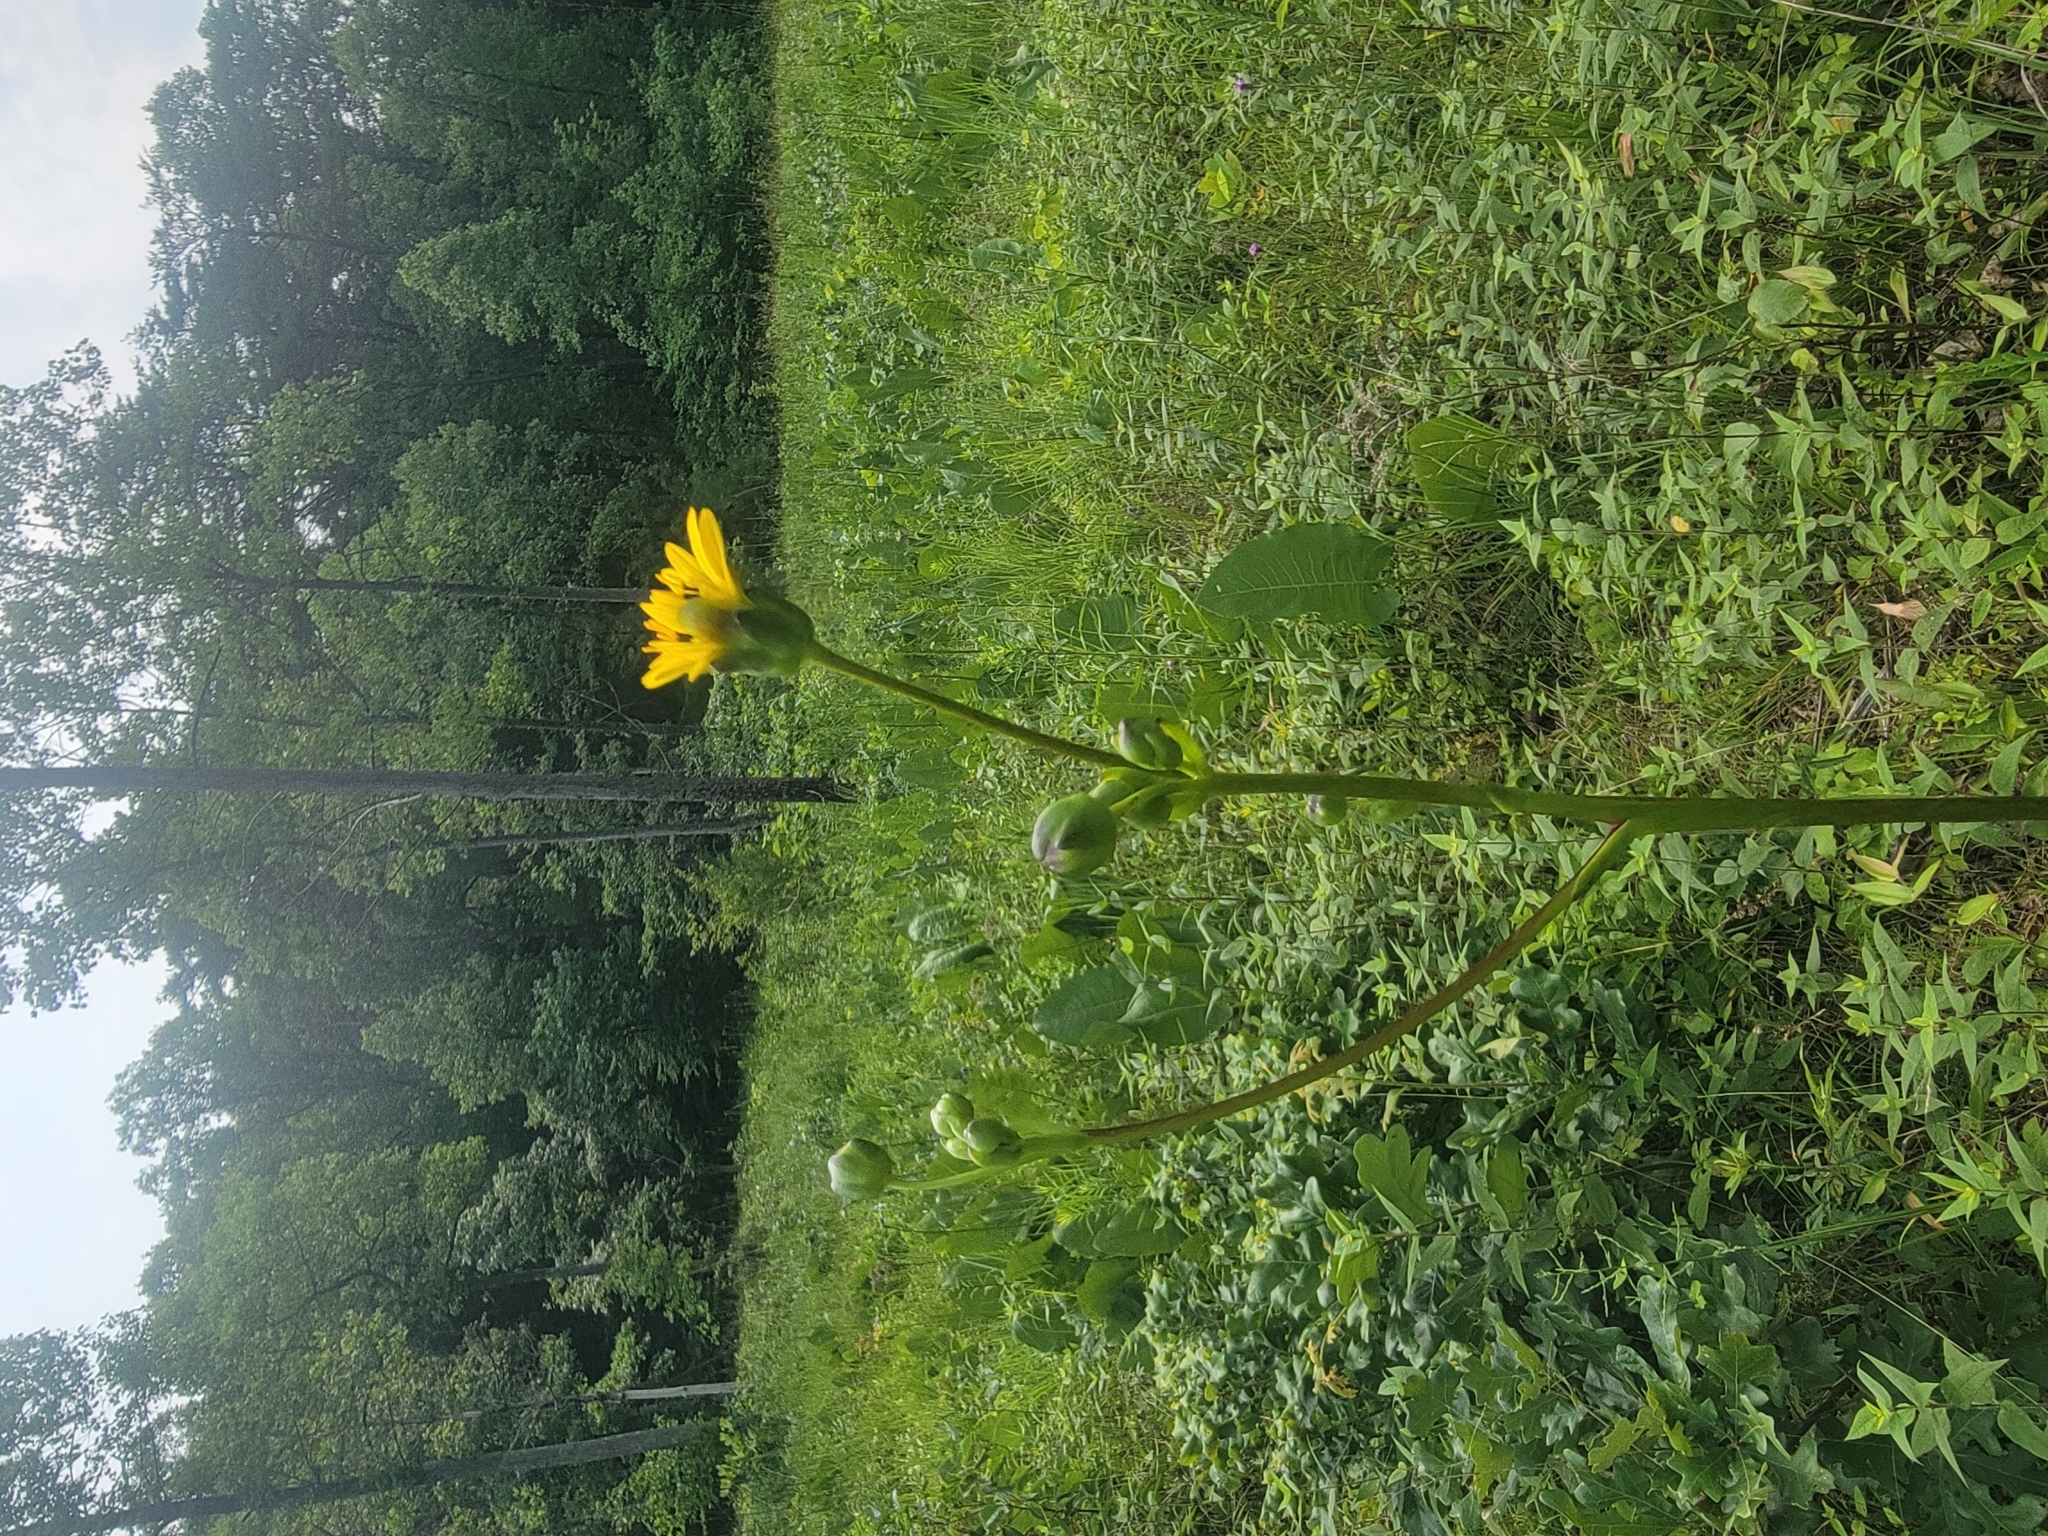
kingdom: Plantae
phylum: Tracheophyta
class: Magnoliopsida
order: Asterales
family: Asteraceae
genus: Silphium
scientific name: Silphium terebinthinaceum
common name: Basal-leaf rosinweed
